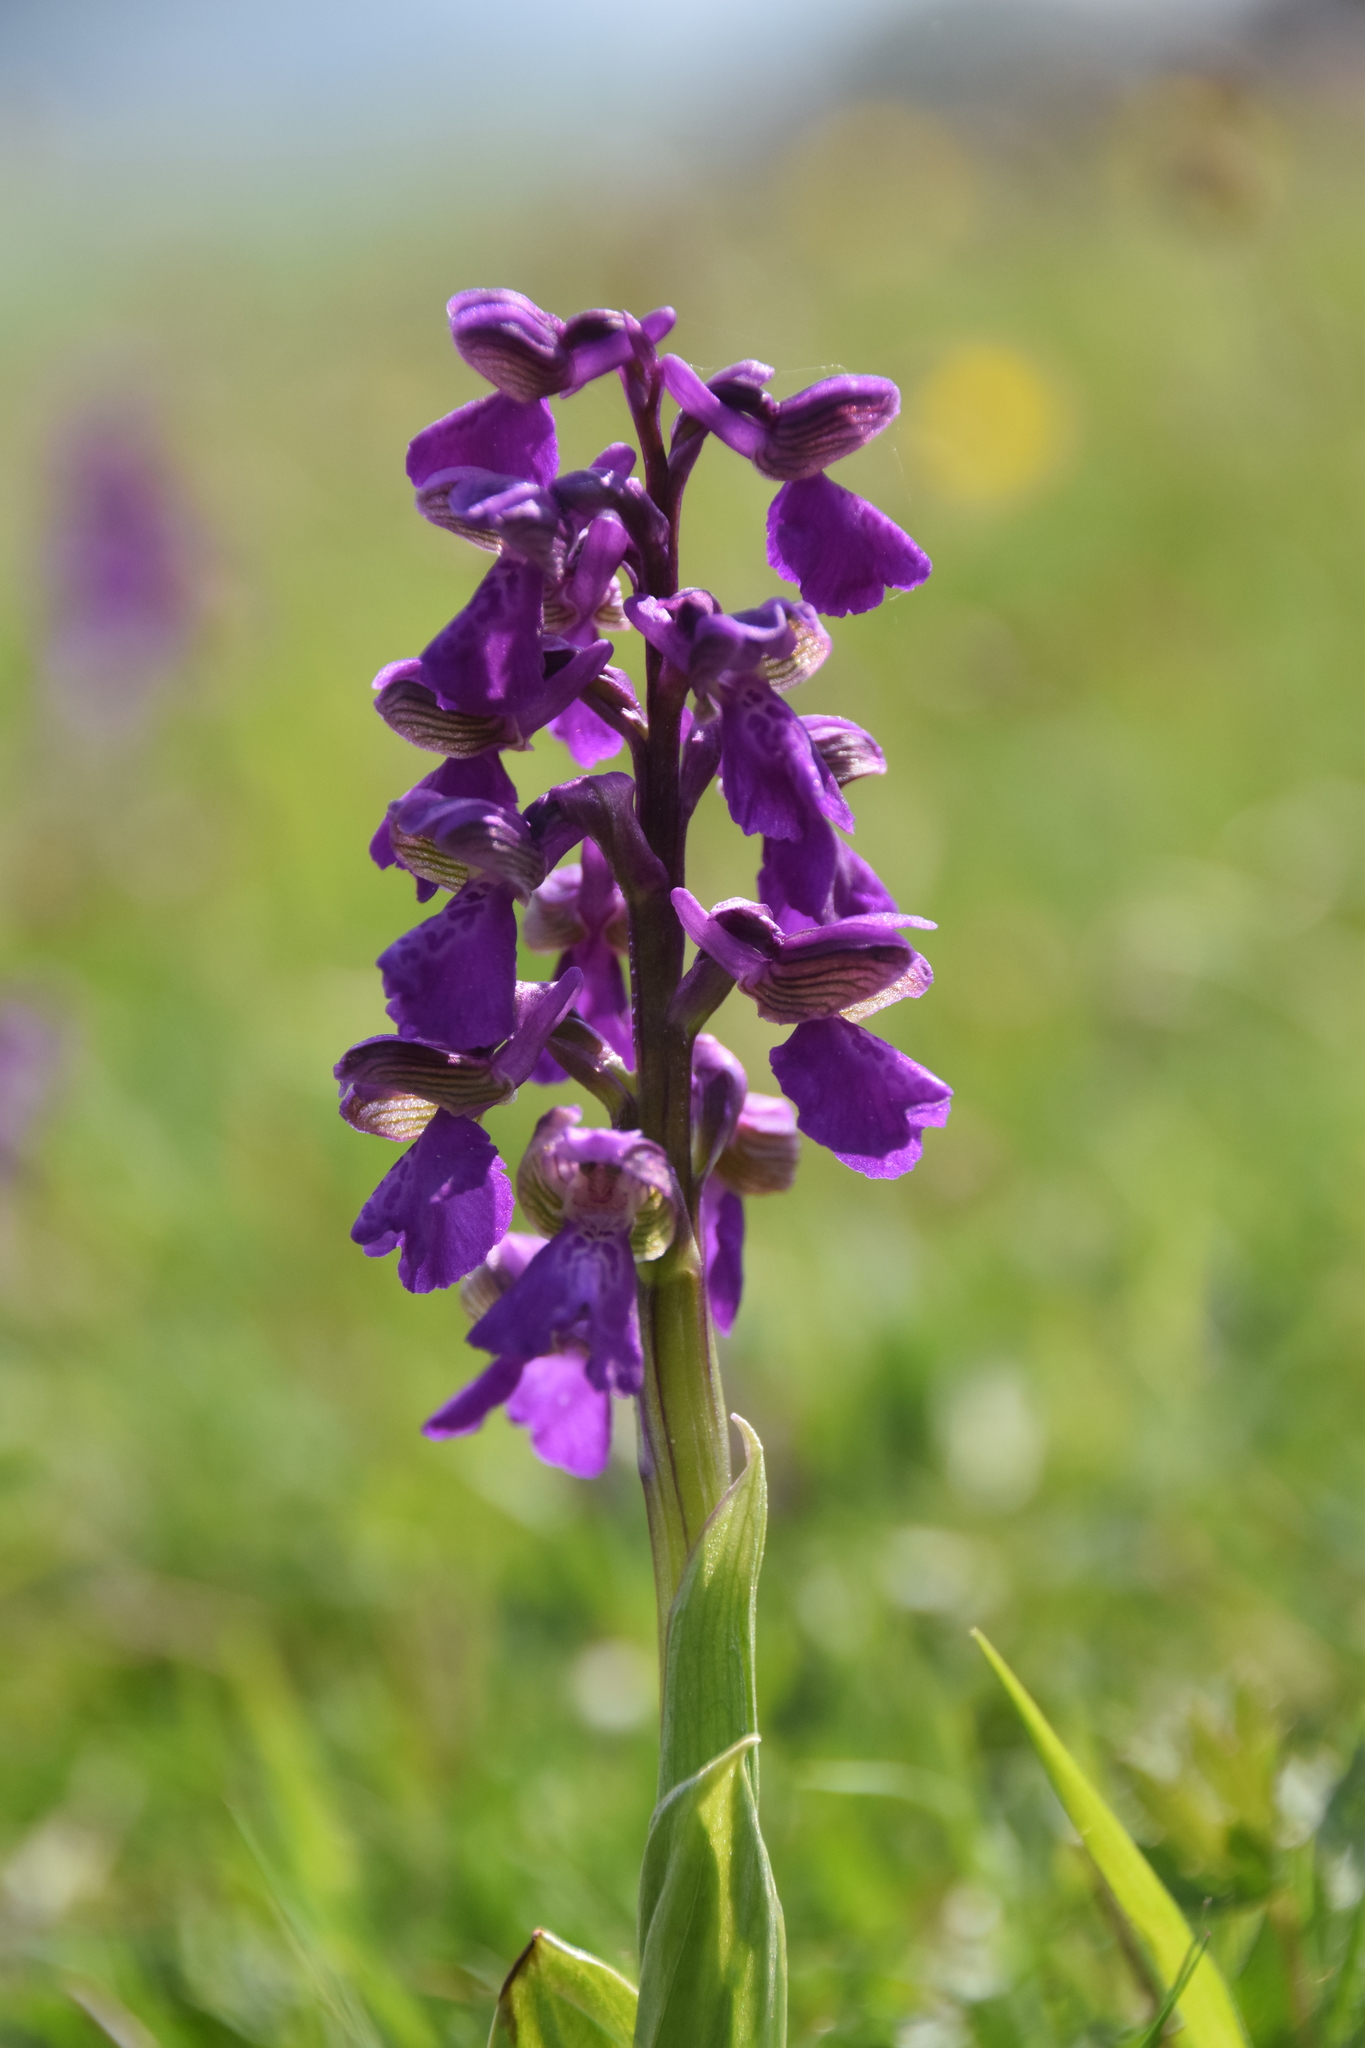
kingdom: Plantae
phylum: Tracheophyta
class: Liliopsida
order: Asparagales
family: Orchidaceae
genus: Anacamptis
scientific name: Anacamptis morio
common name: Green-winged orchid
